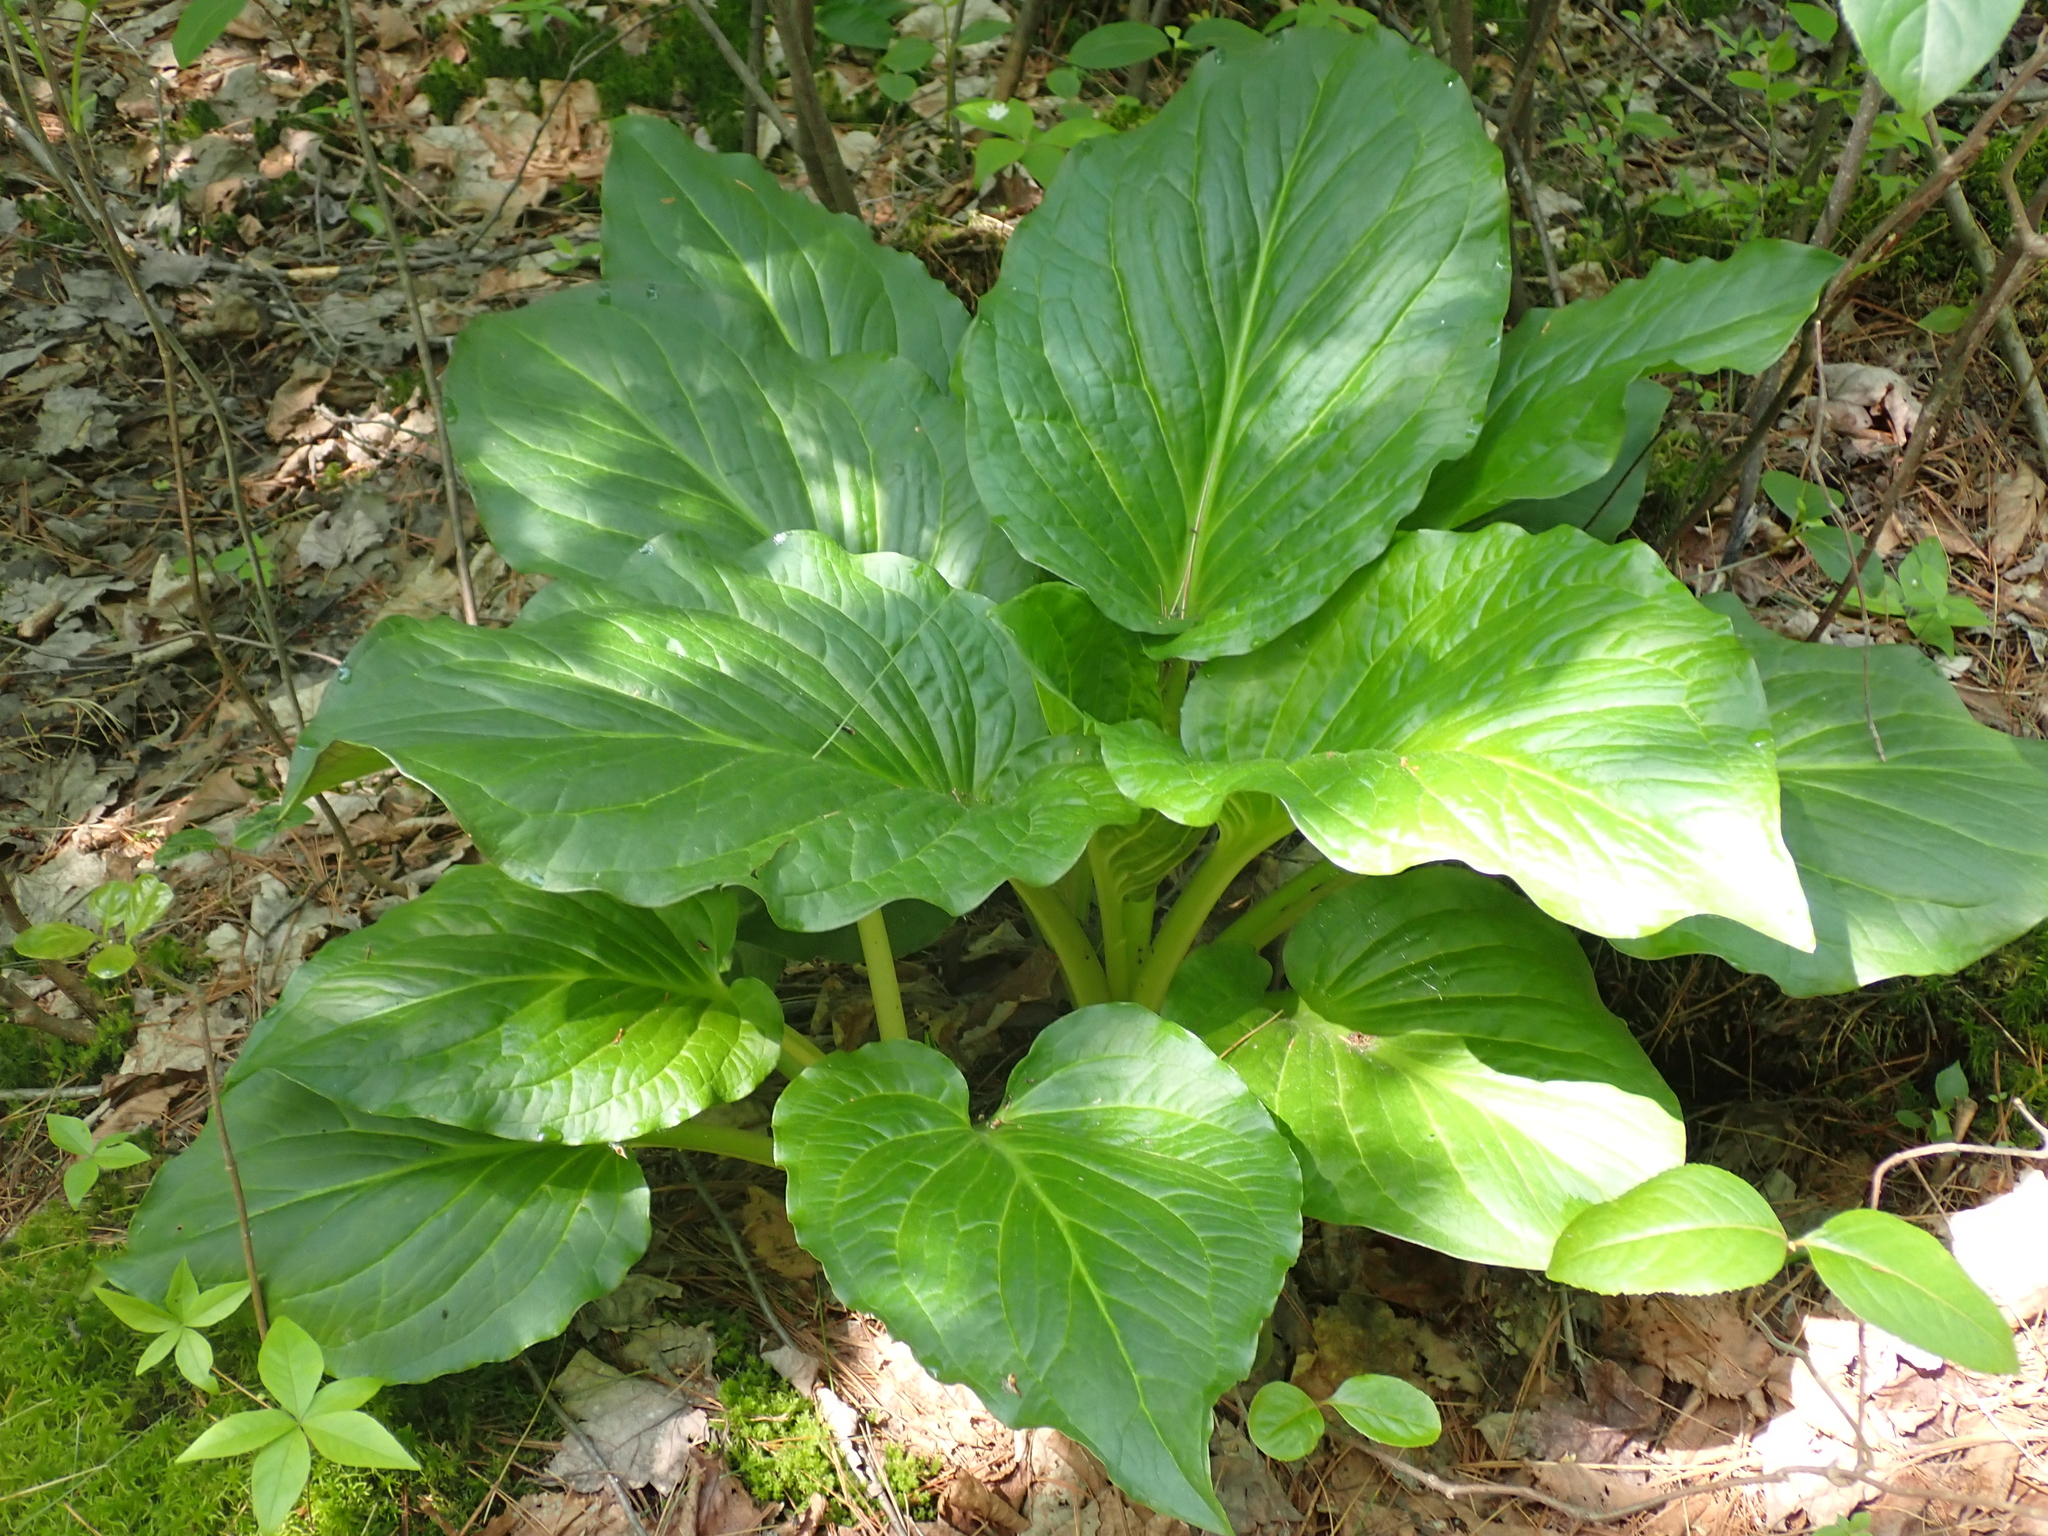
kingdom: Plantae
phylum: Tracheophyta
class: Liliopsida
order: Alismatales
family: Araceae
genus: Symplocarpus
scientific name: Symplocarpus foetidus
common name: Eastern skunk cabbage
